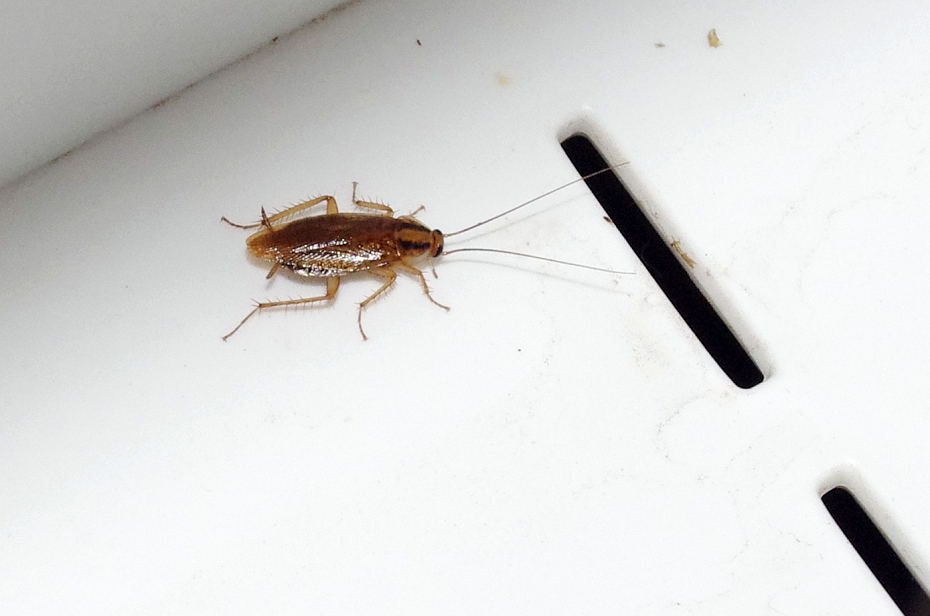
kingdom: Animalia
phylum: Arthropoda
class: Insecta
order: Blattodea
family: Ectobiidae
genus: Blattella
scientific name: Blattella germanica
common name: German cockroach
